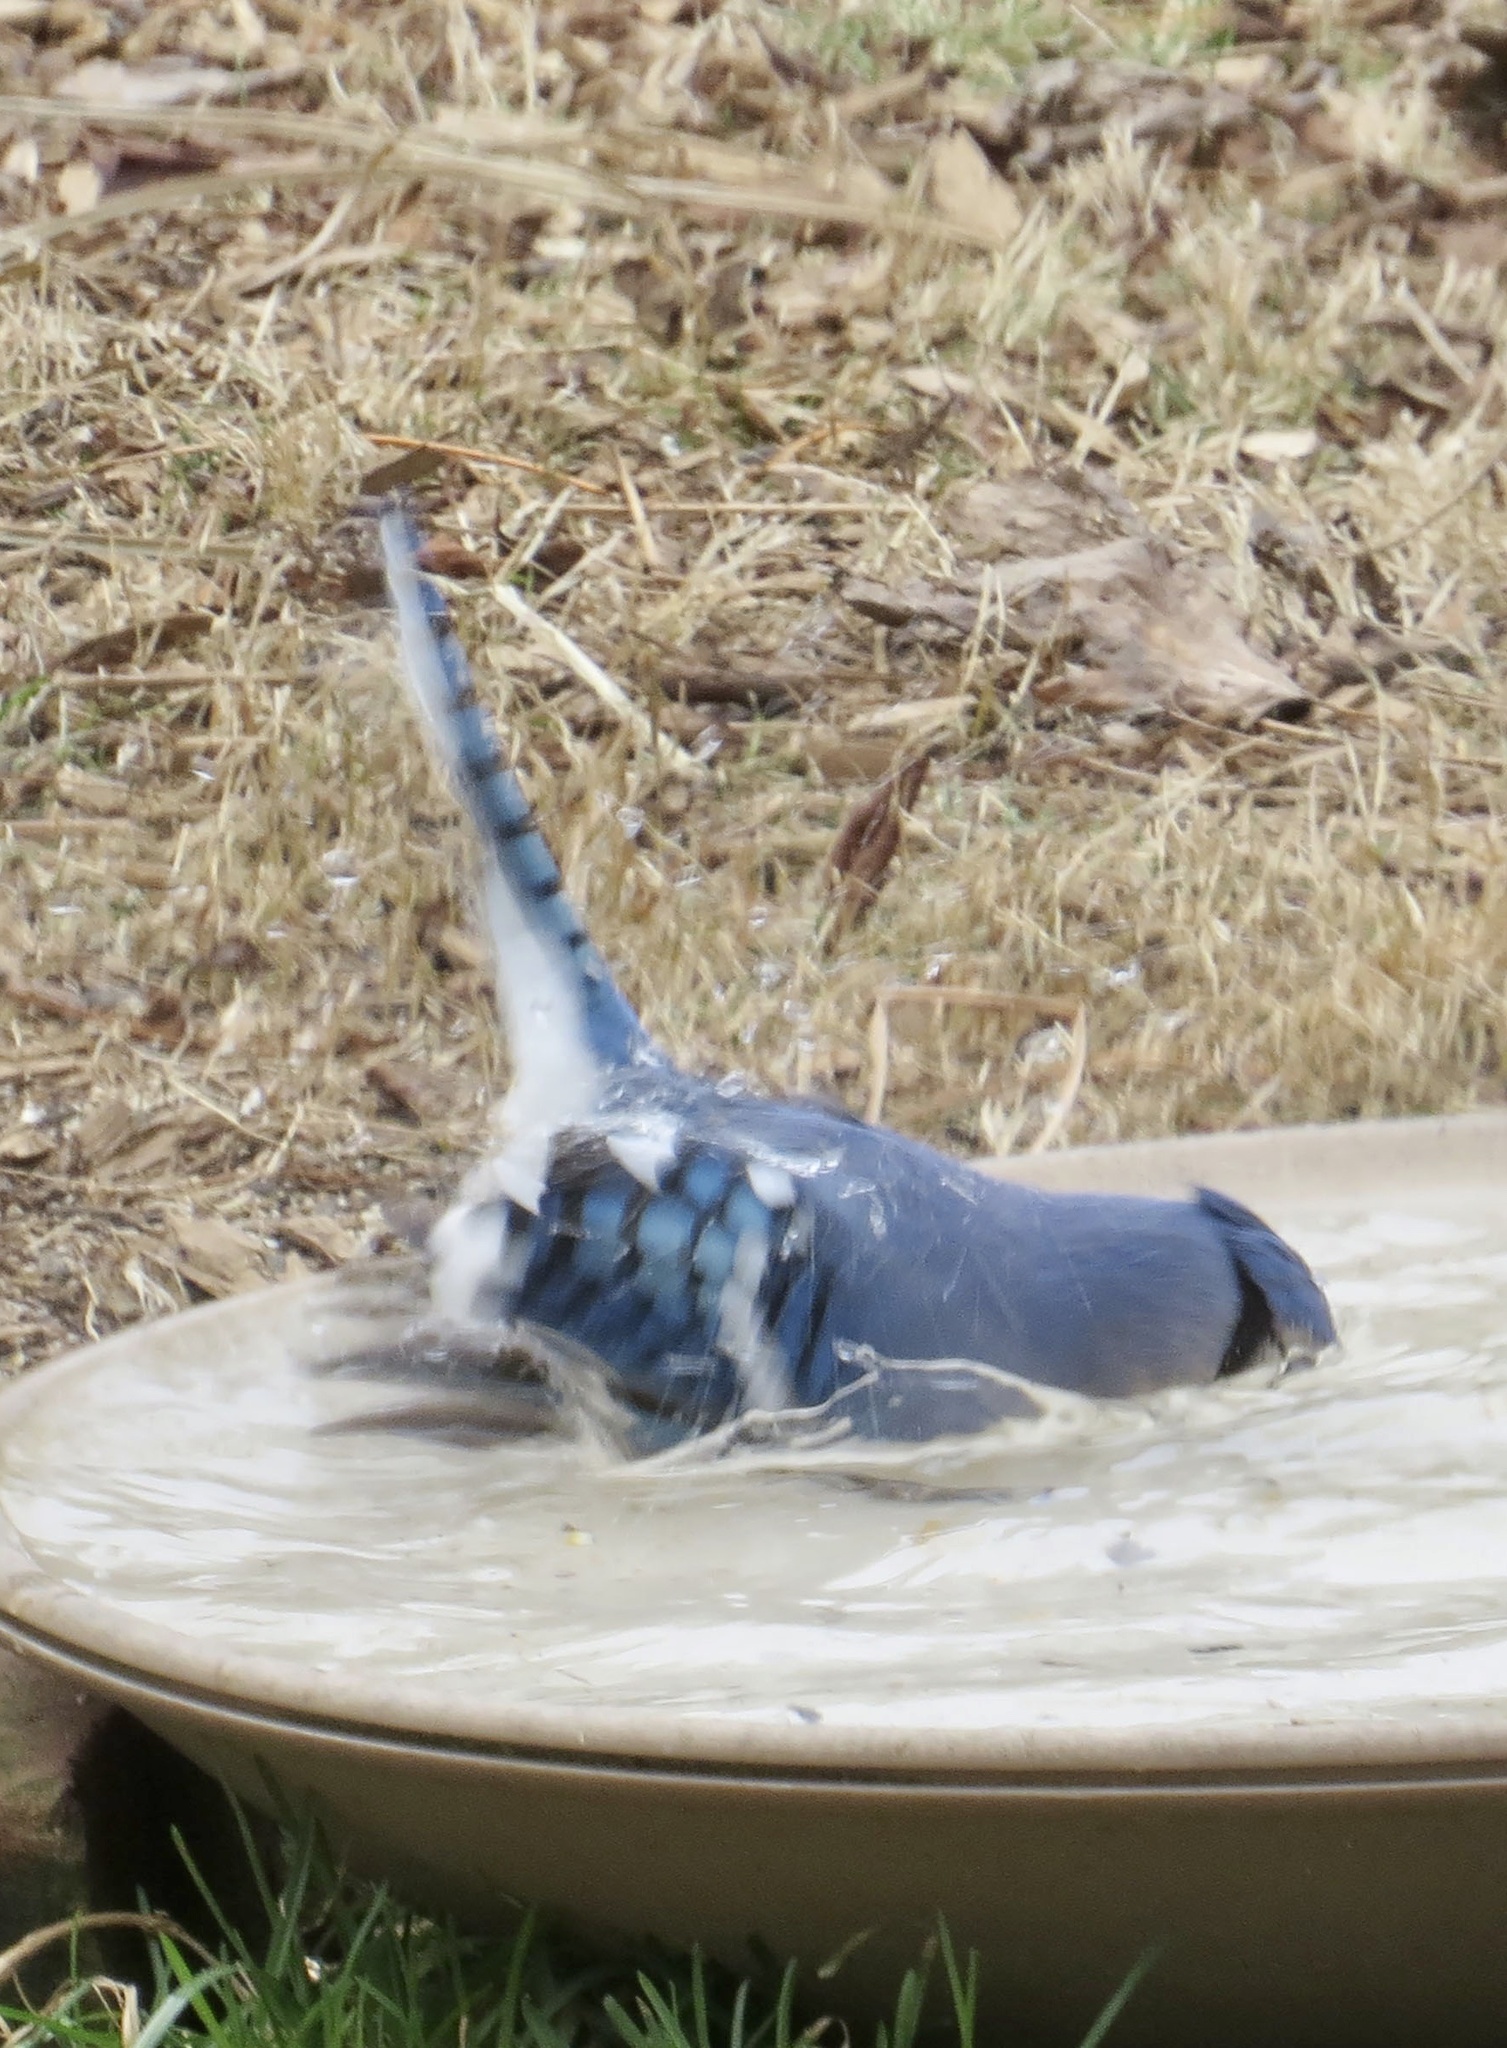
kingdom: Animalia
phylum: Chordata
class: Aves
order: Passeriformes
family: Corvidae
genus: Cyanocitta
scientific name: Cyanocitta cristata
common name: Blue jay
